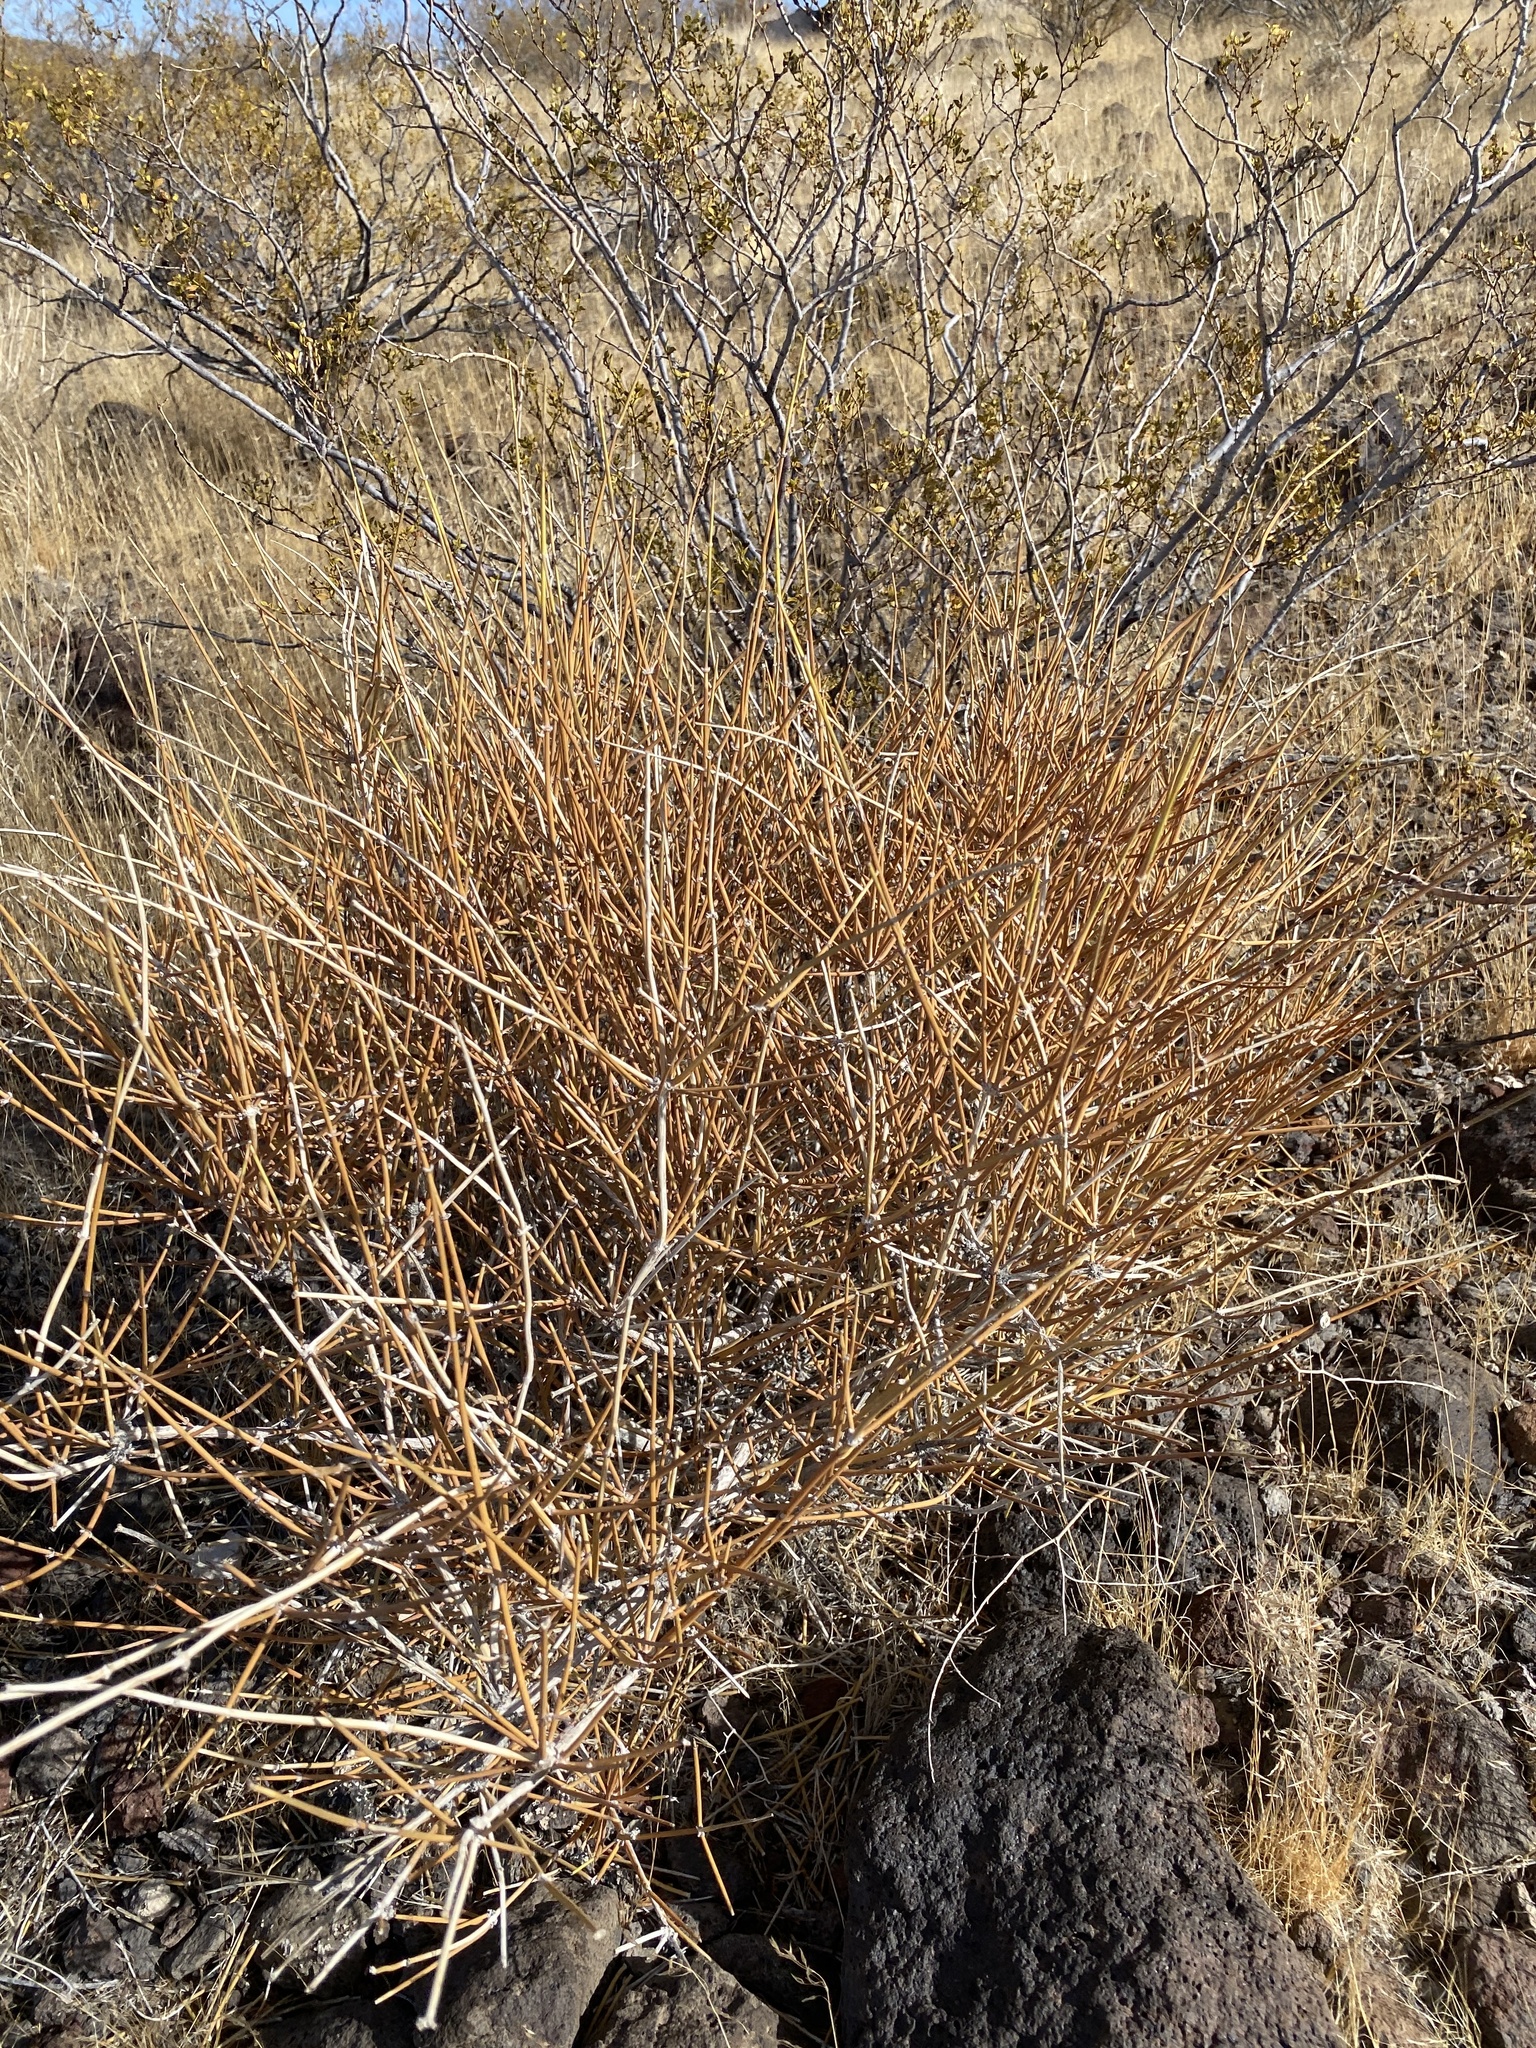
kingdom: Plantae
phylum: Tracheophyta
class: Gnetopsida
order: Ephedrales
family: Ephedraceae
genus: Ephedra
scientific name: Ephedra nevadensis
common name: Gray ephedra
